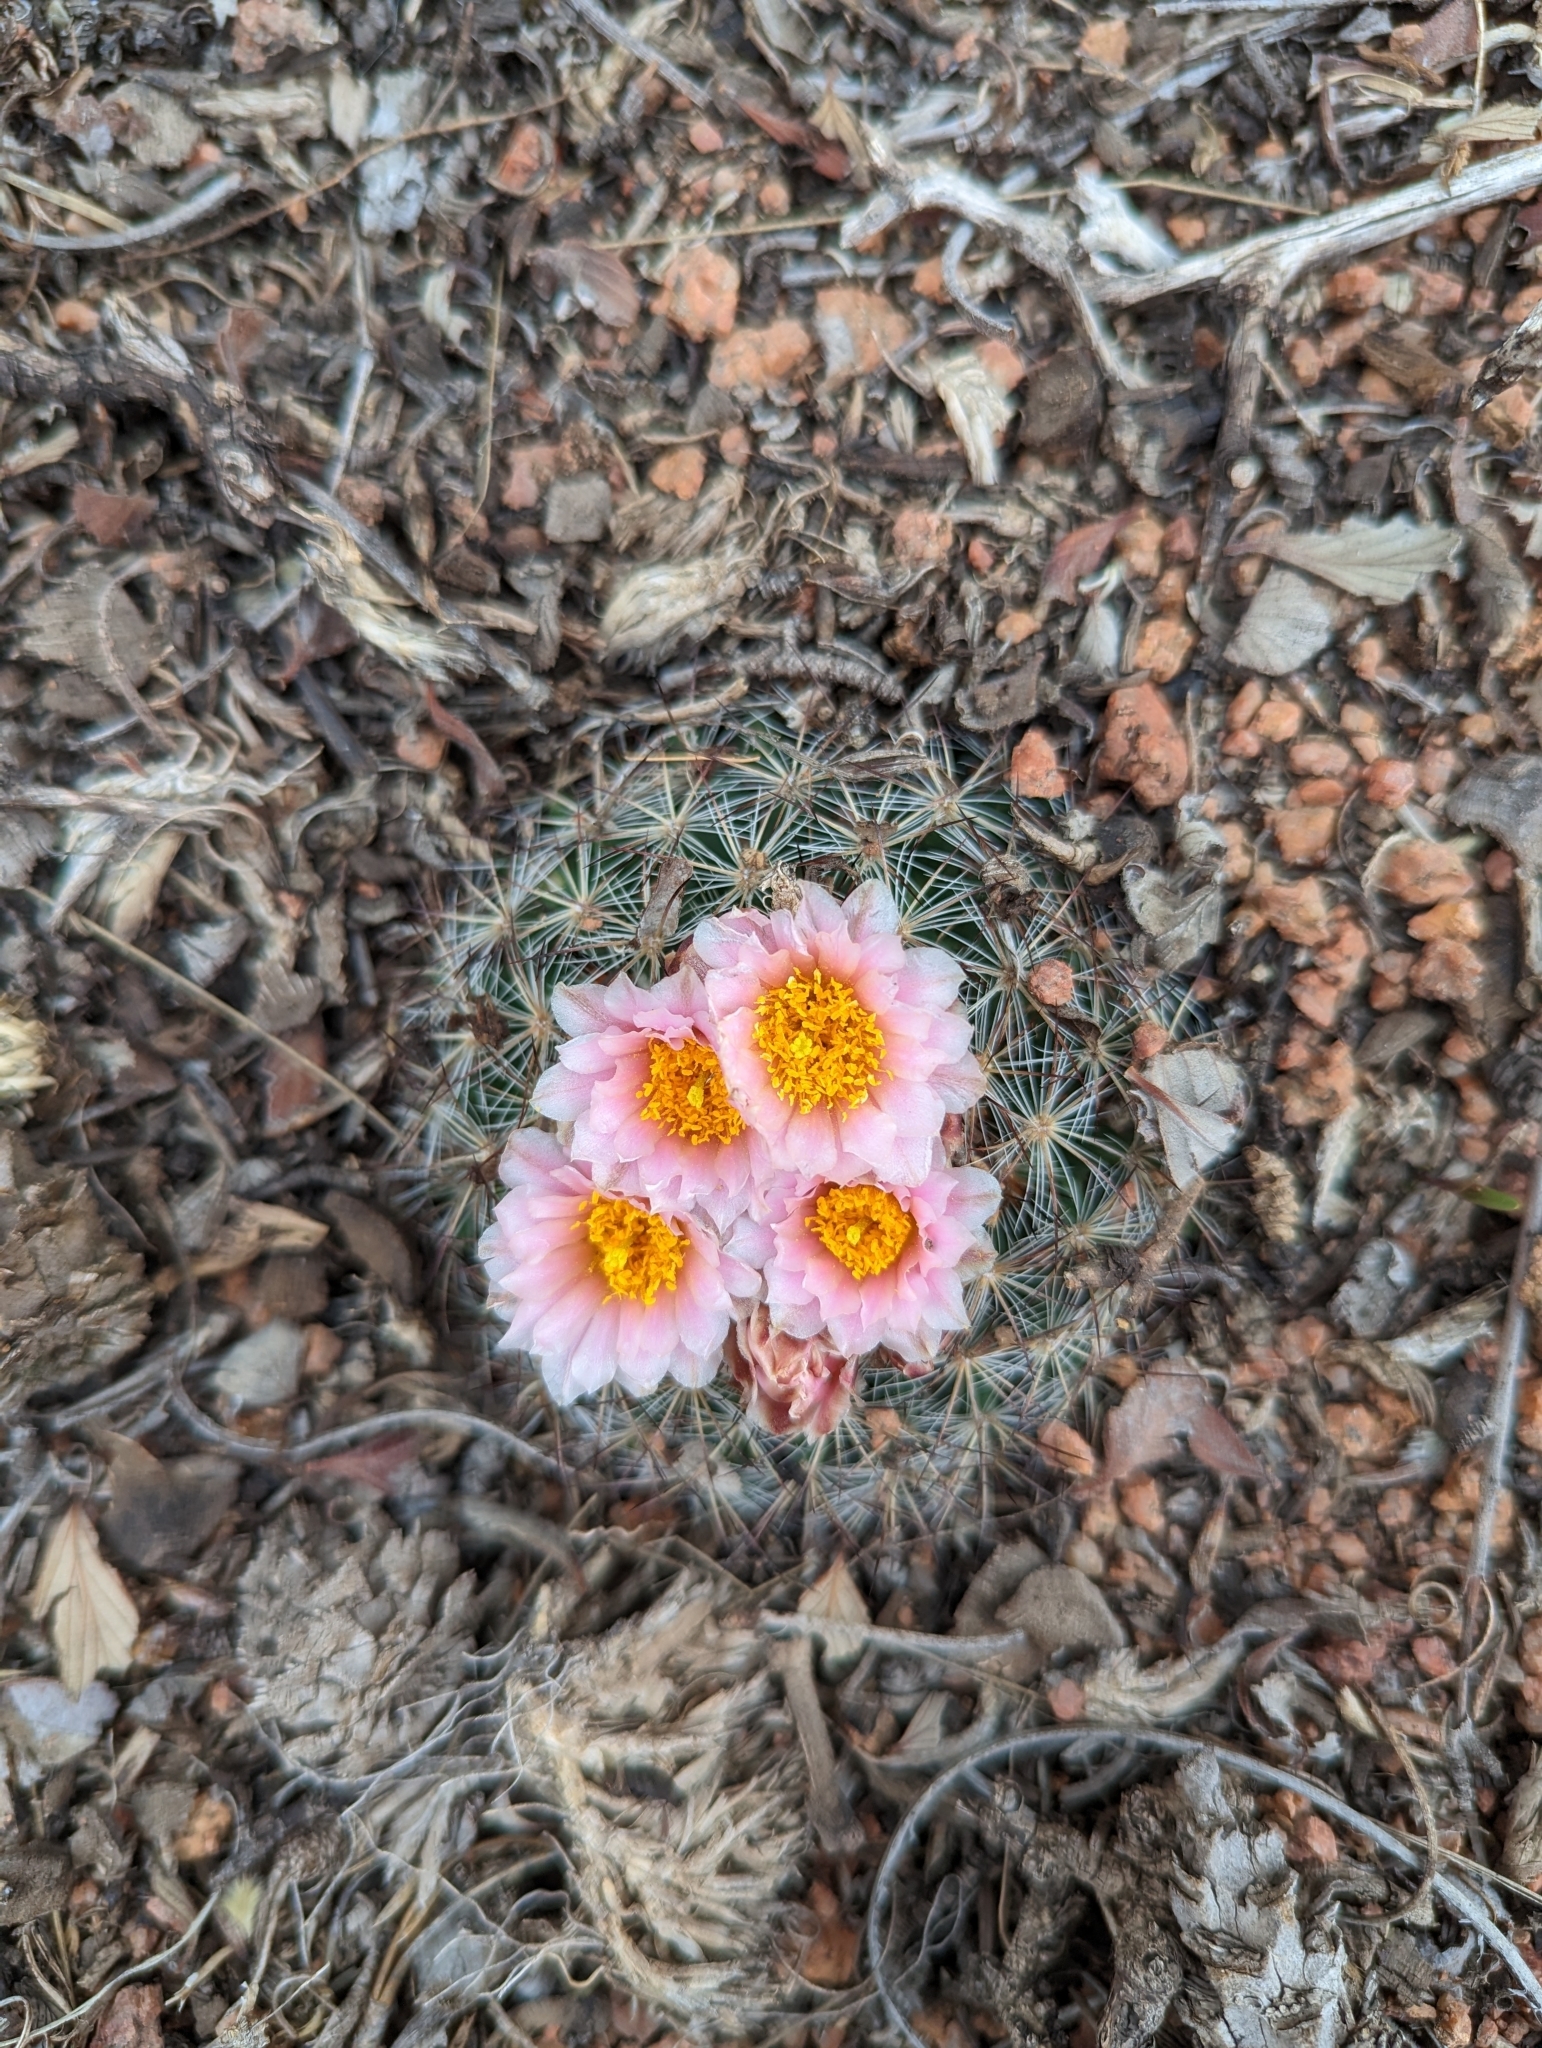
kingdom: Plantae
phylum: Tracheophyta
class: Magnoliopsida
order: Caryophyllales
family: Cactaceae
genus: Pediocactus
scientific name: Pediocactus simpsonii
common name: Simpson's hedgehog cactus
